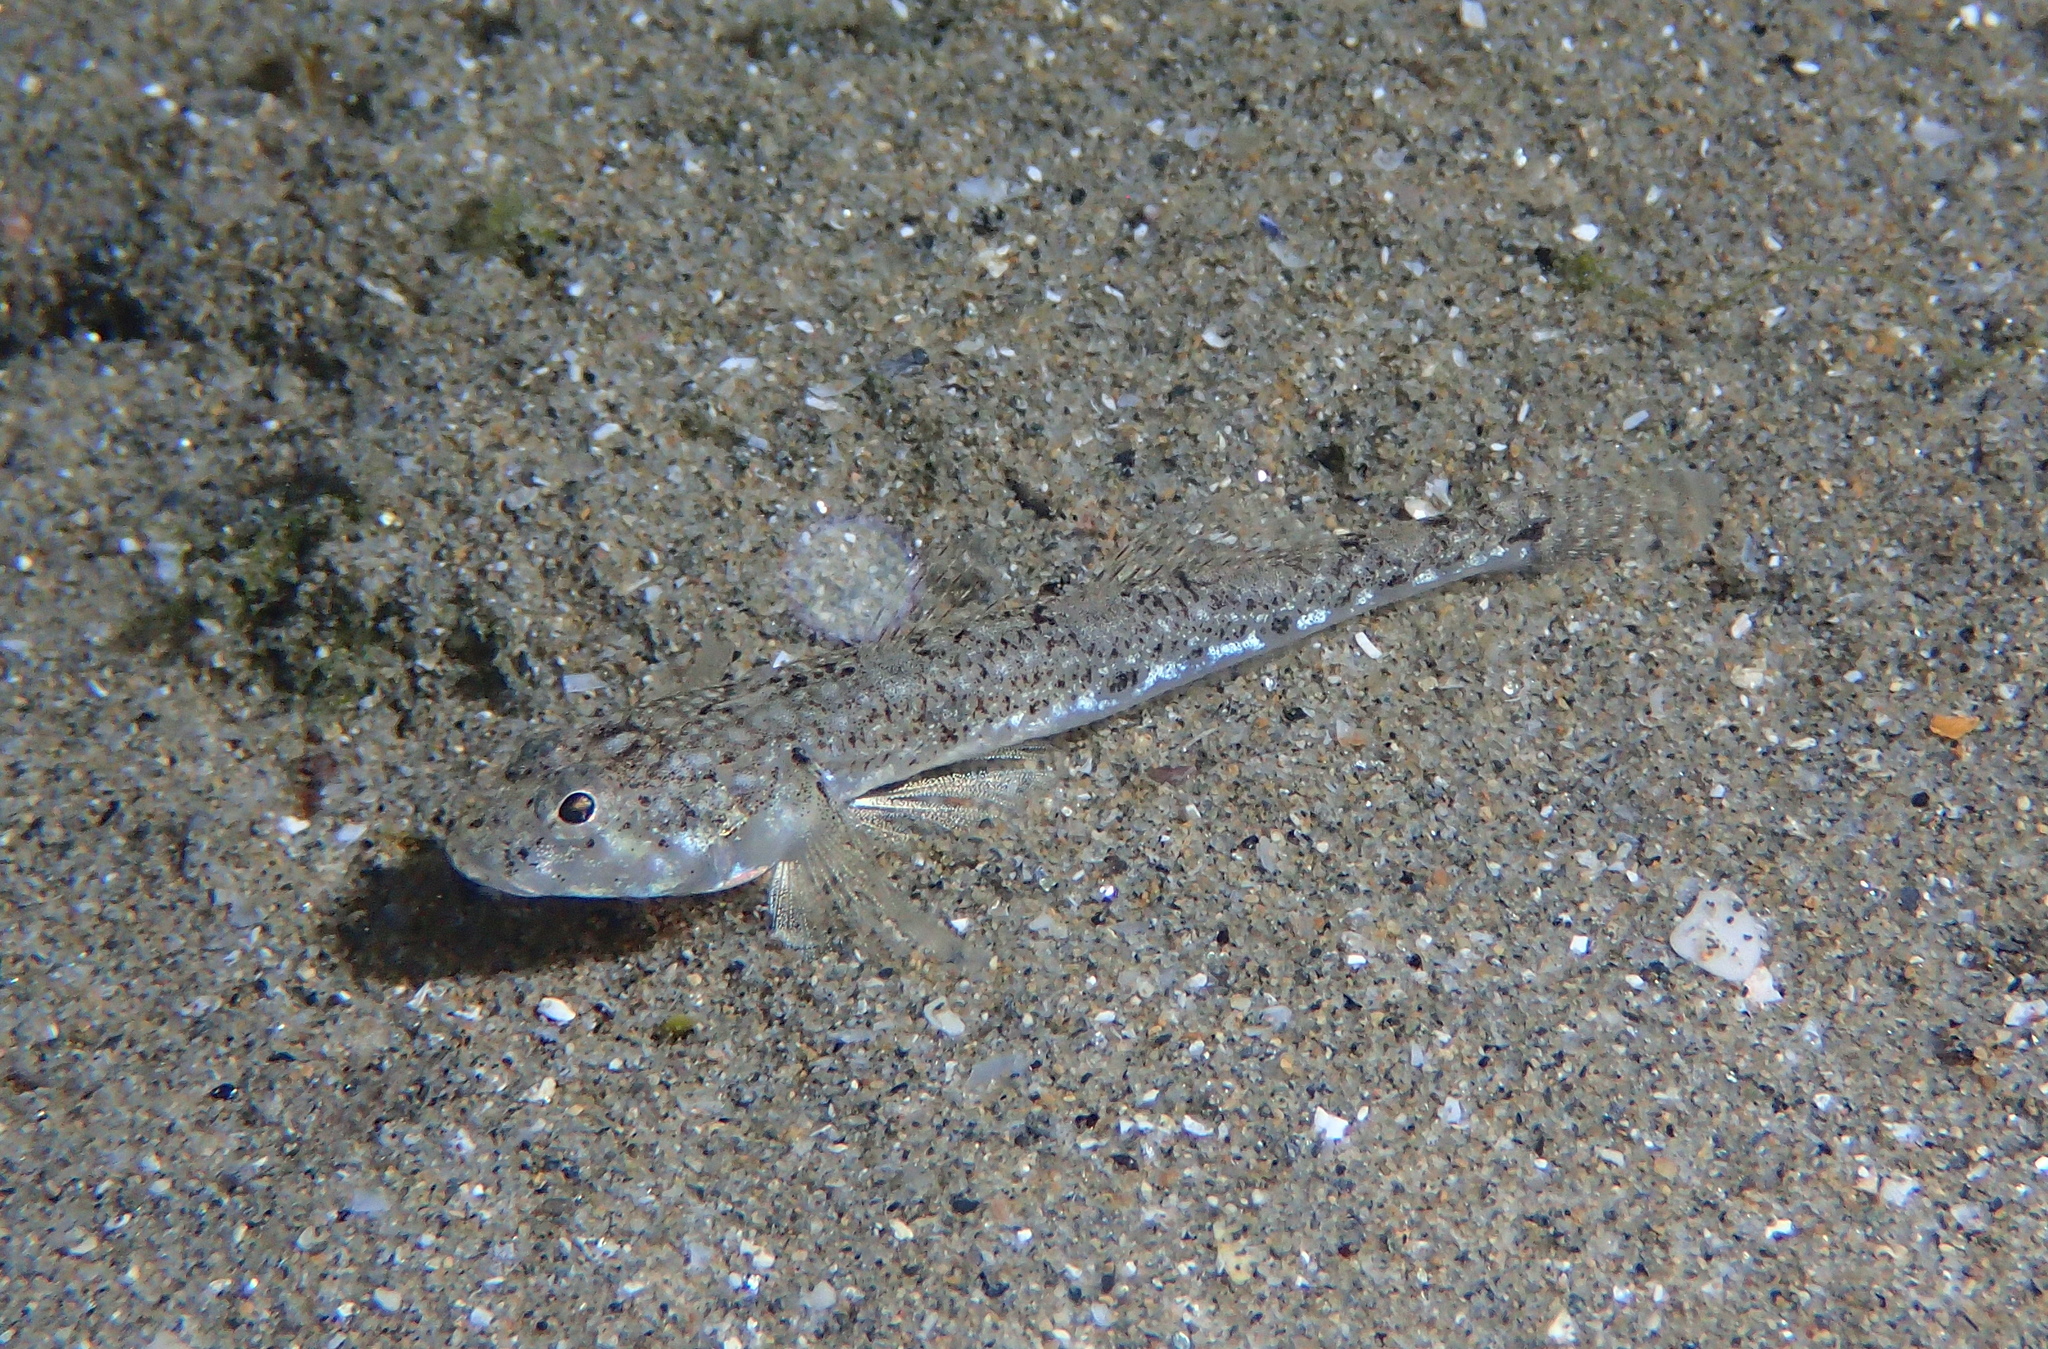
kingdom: Animalia
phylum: Chordata
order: Perciformes
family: Gobiidae
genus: Pomatoschistus
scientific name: Pomatoschistus marmoratus
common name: Marbled goby
